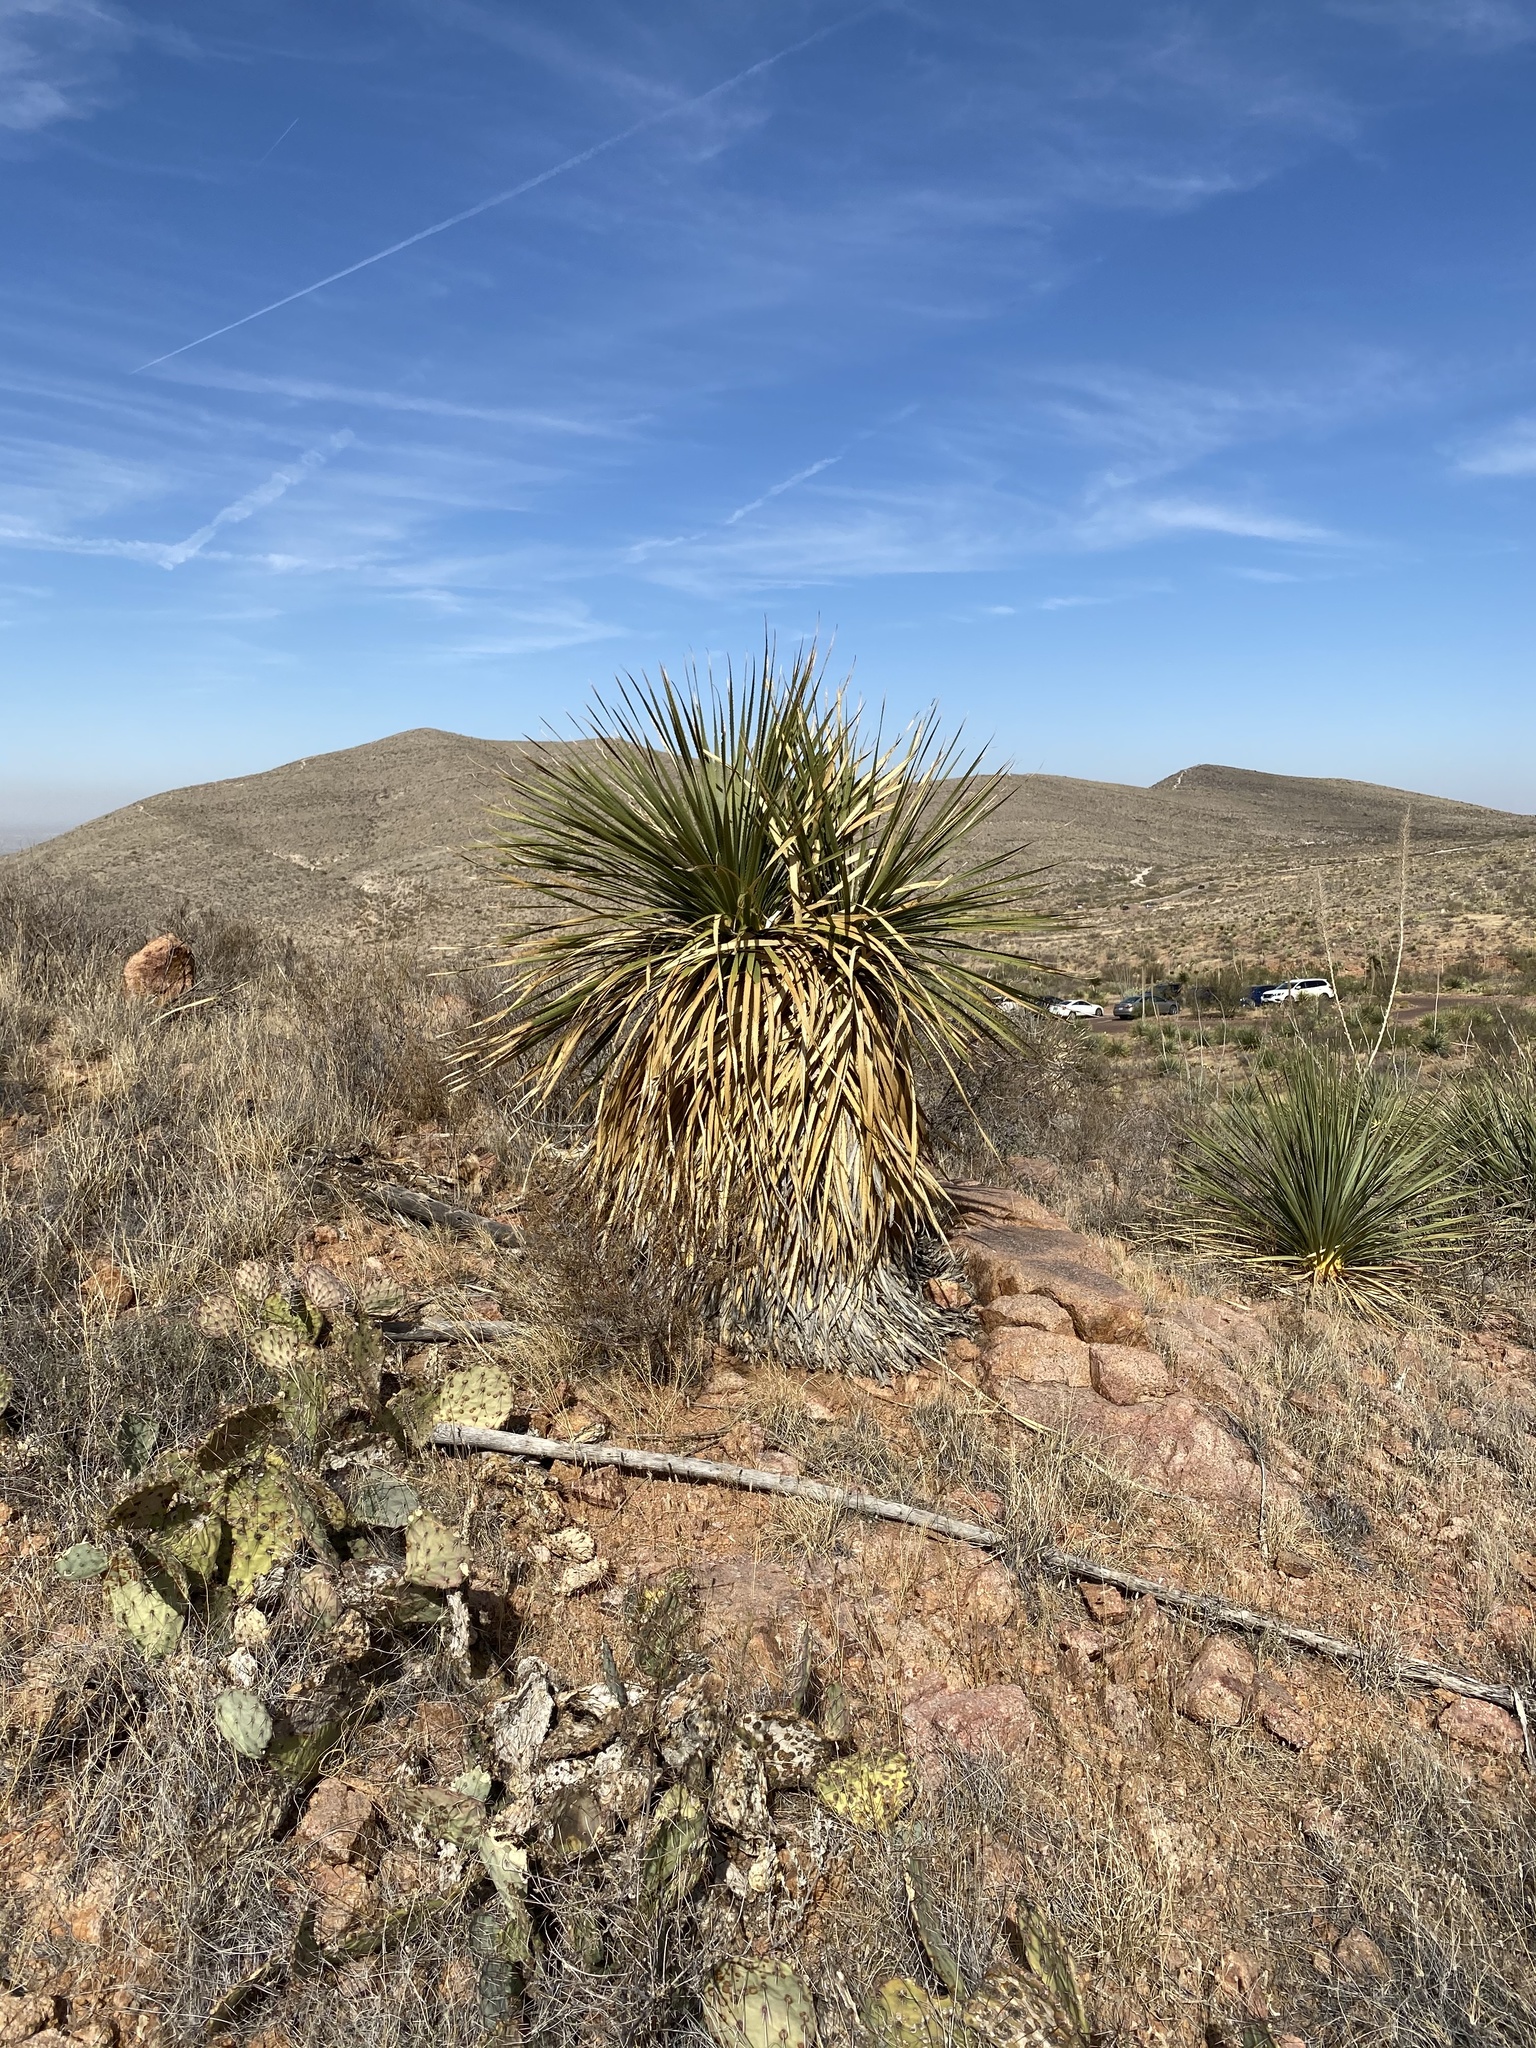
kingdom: Plantae
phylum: Tracheophyta
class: Liliopsida
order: Asparagales
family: Asparagaceae
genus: Dasylirion
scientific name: Dasylirion wheeleri
